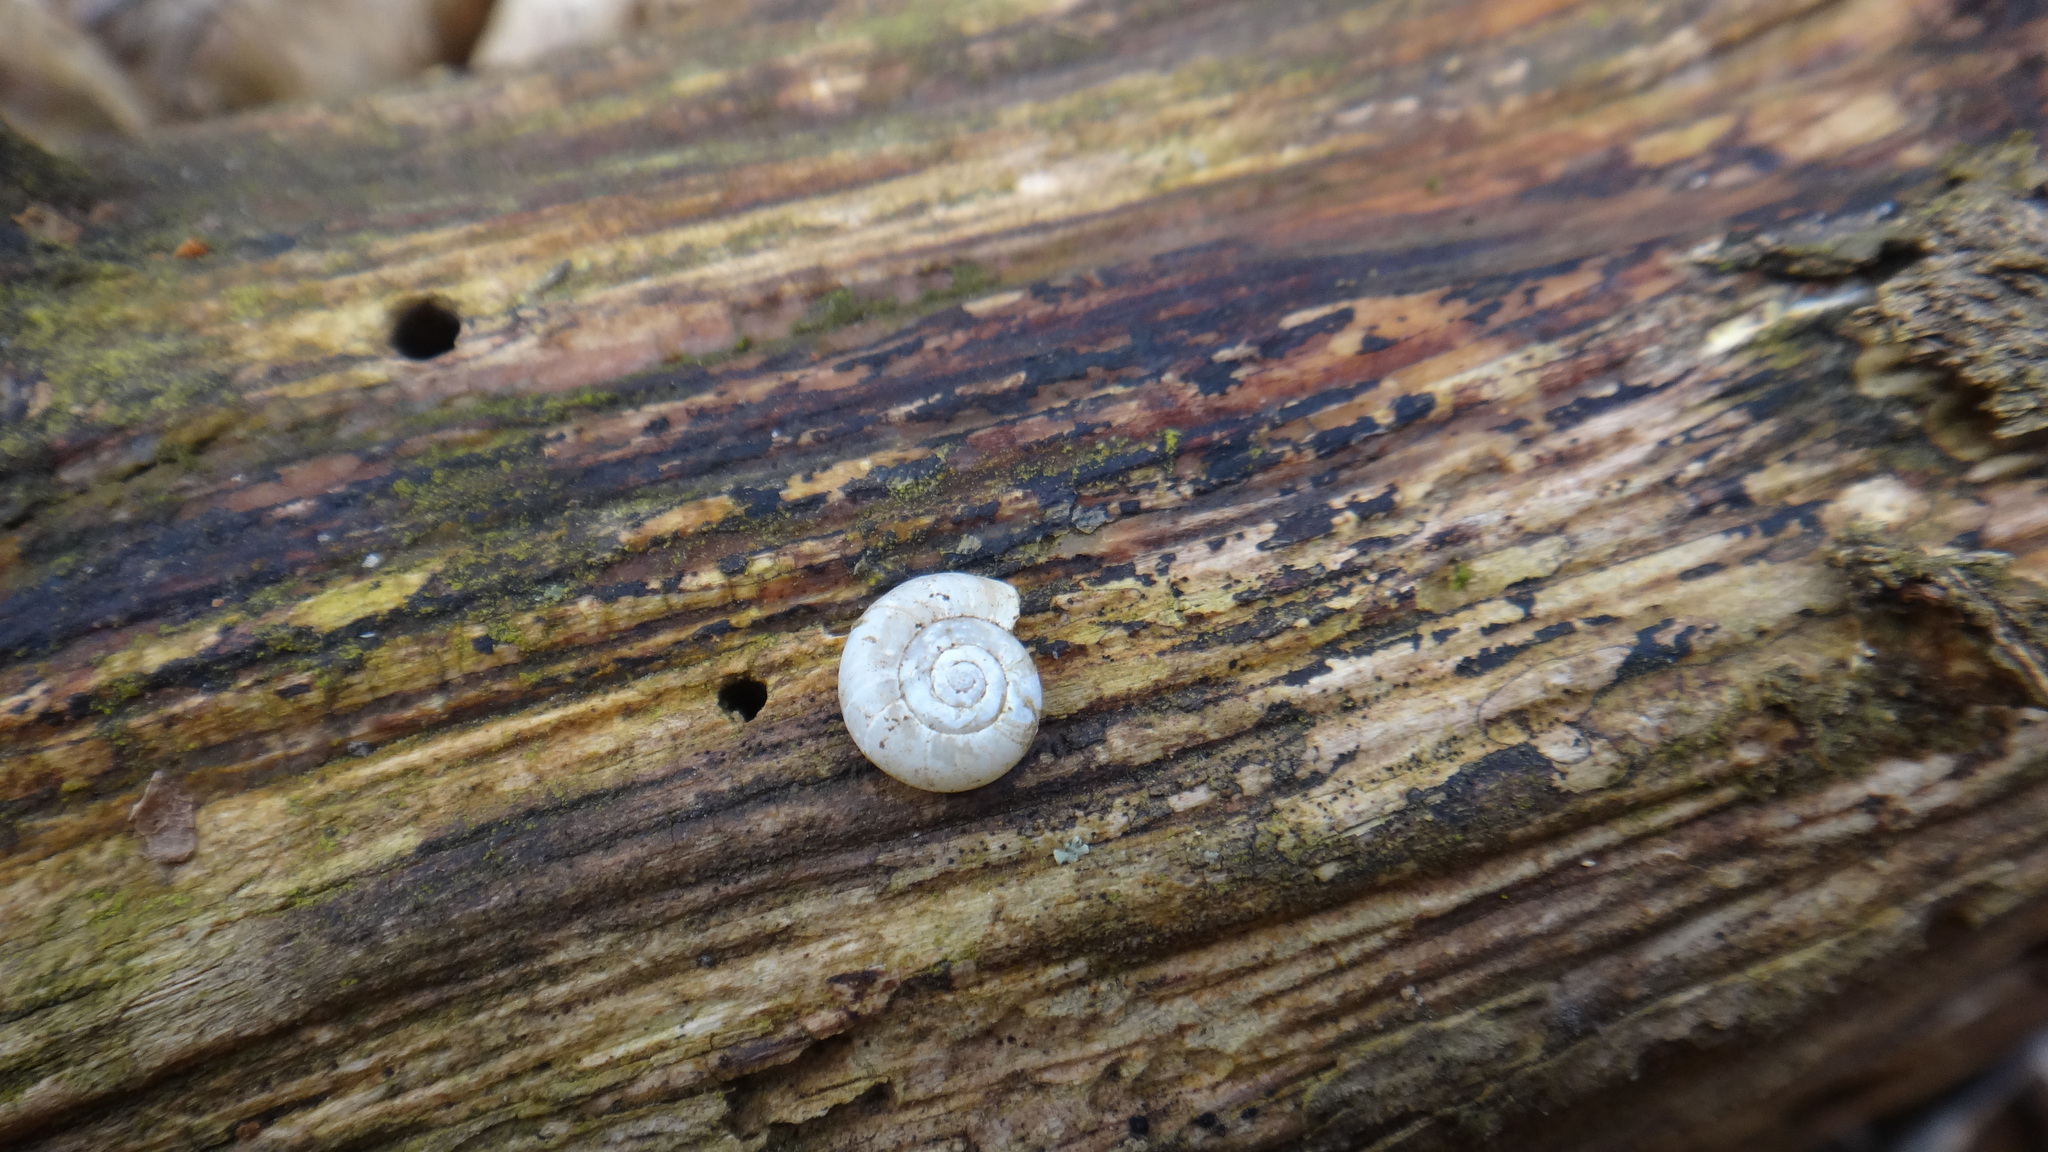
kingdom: Animalia
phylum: Mollusca
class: Gastropoda
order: Stylommatophora
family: Gastrodontidae
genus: Aegopinella
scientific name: Aegopinella minor
